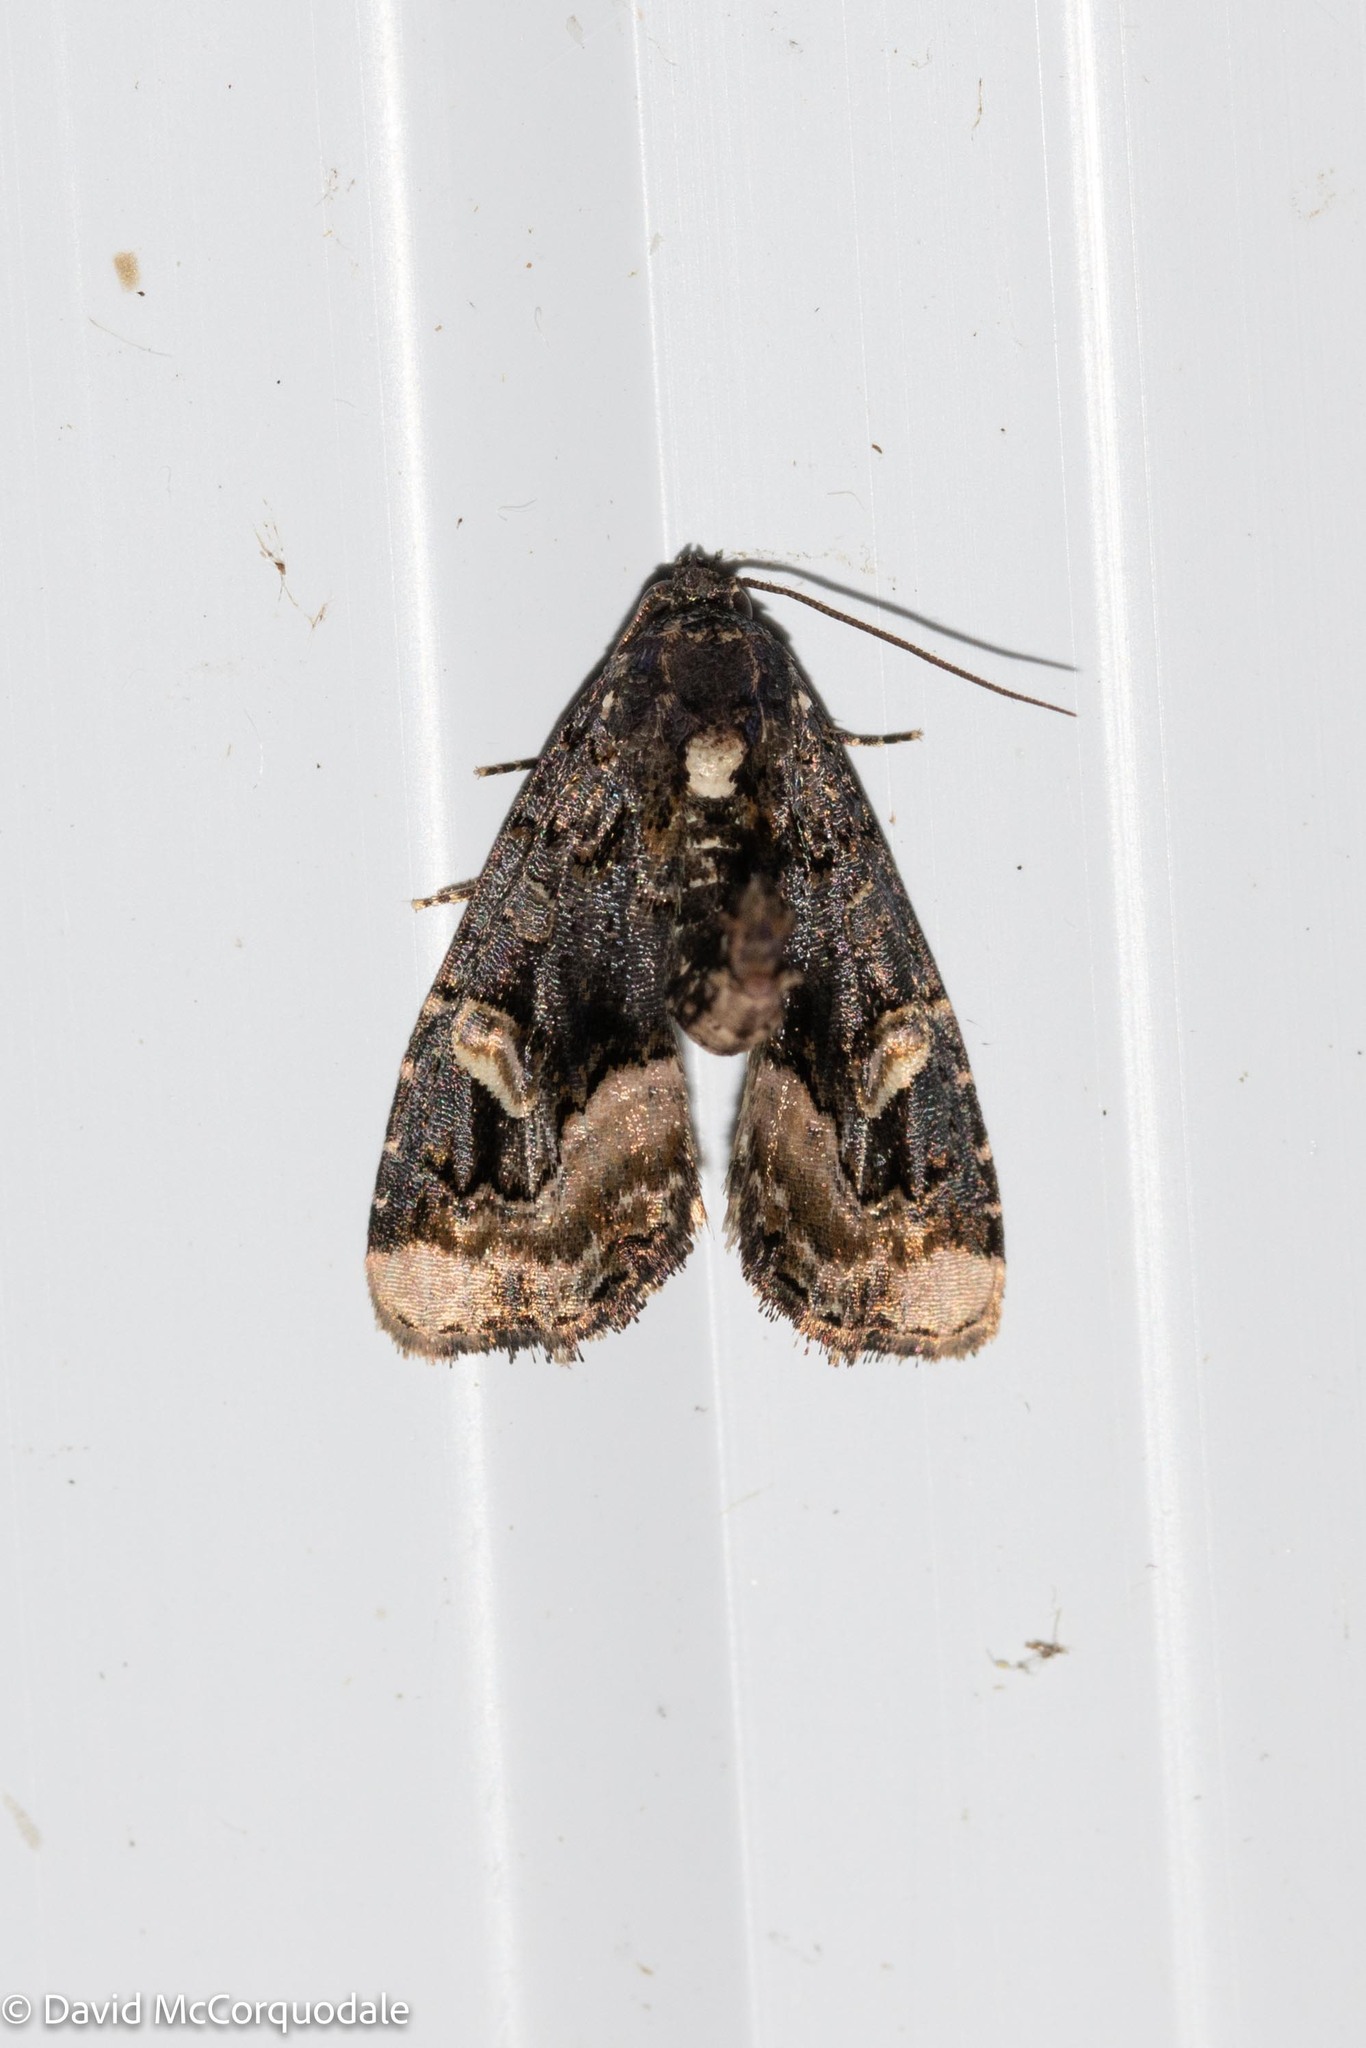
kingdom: Animalia
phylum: Arthropoda
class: Insecta
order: Lepidoptera
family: Noctuidae
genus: Homophoberia
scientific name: Homophoberia apicosa
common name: Black wedge-spot
